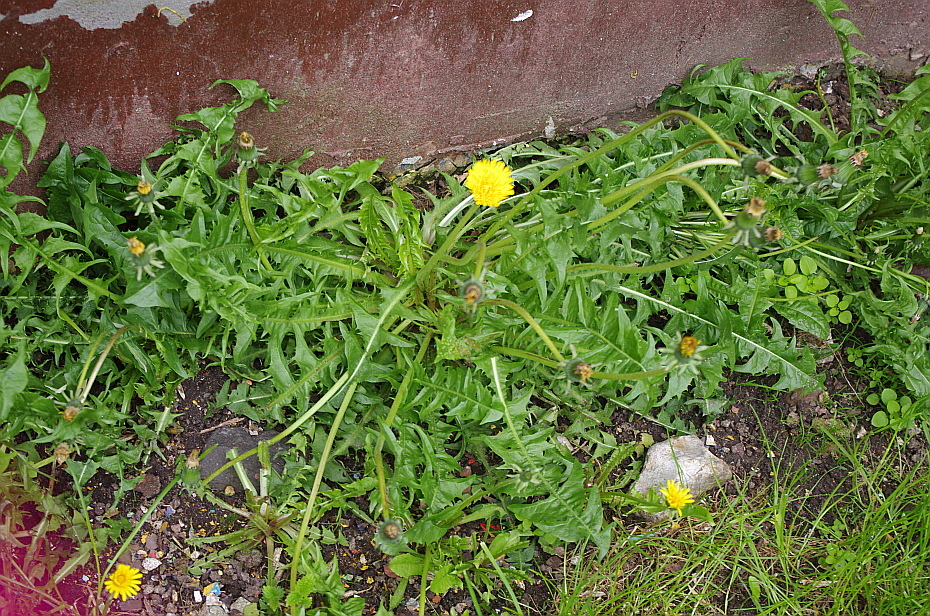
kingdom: Plantae
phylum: Tracheophyta
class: Magnoliopsida
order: Asterales
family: Asteraceae
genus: Taraxacum
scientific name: Taraxacum officinale
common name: Common dandelion
